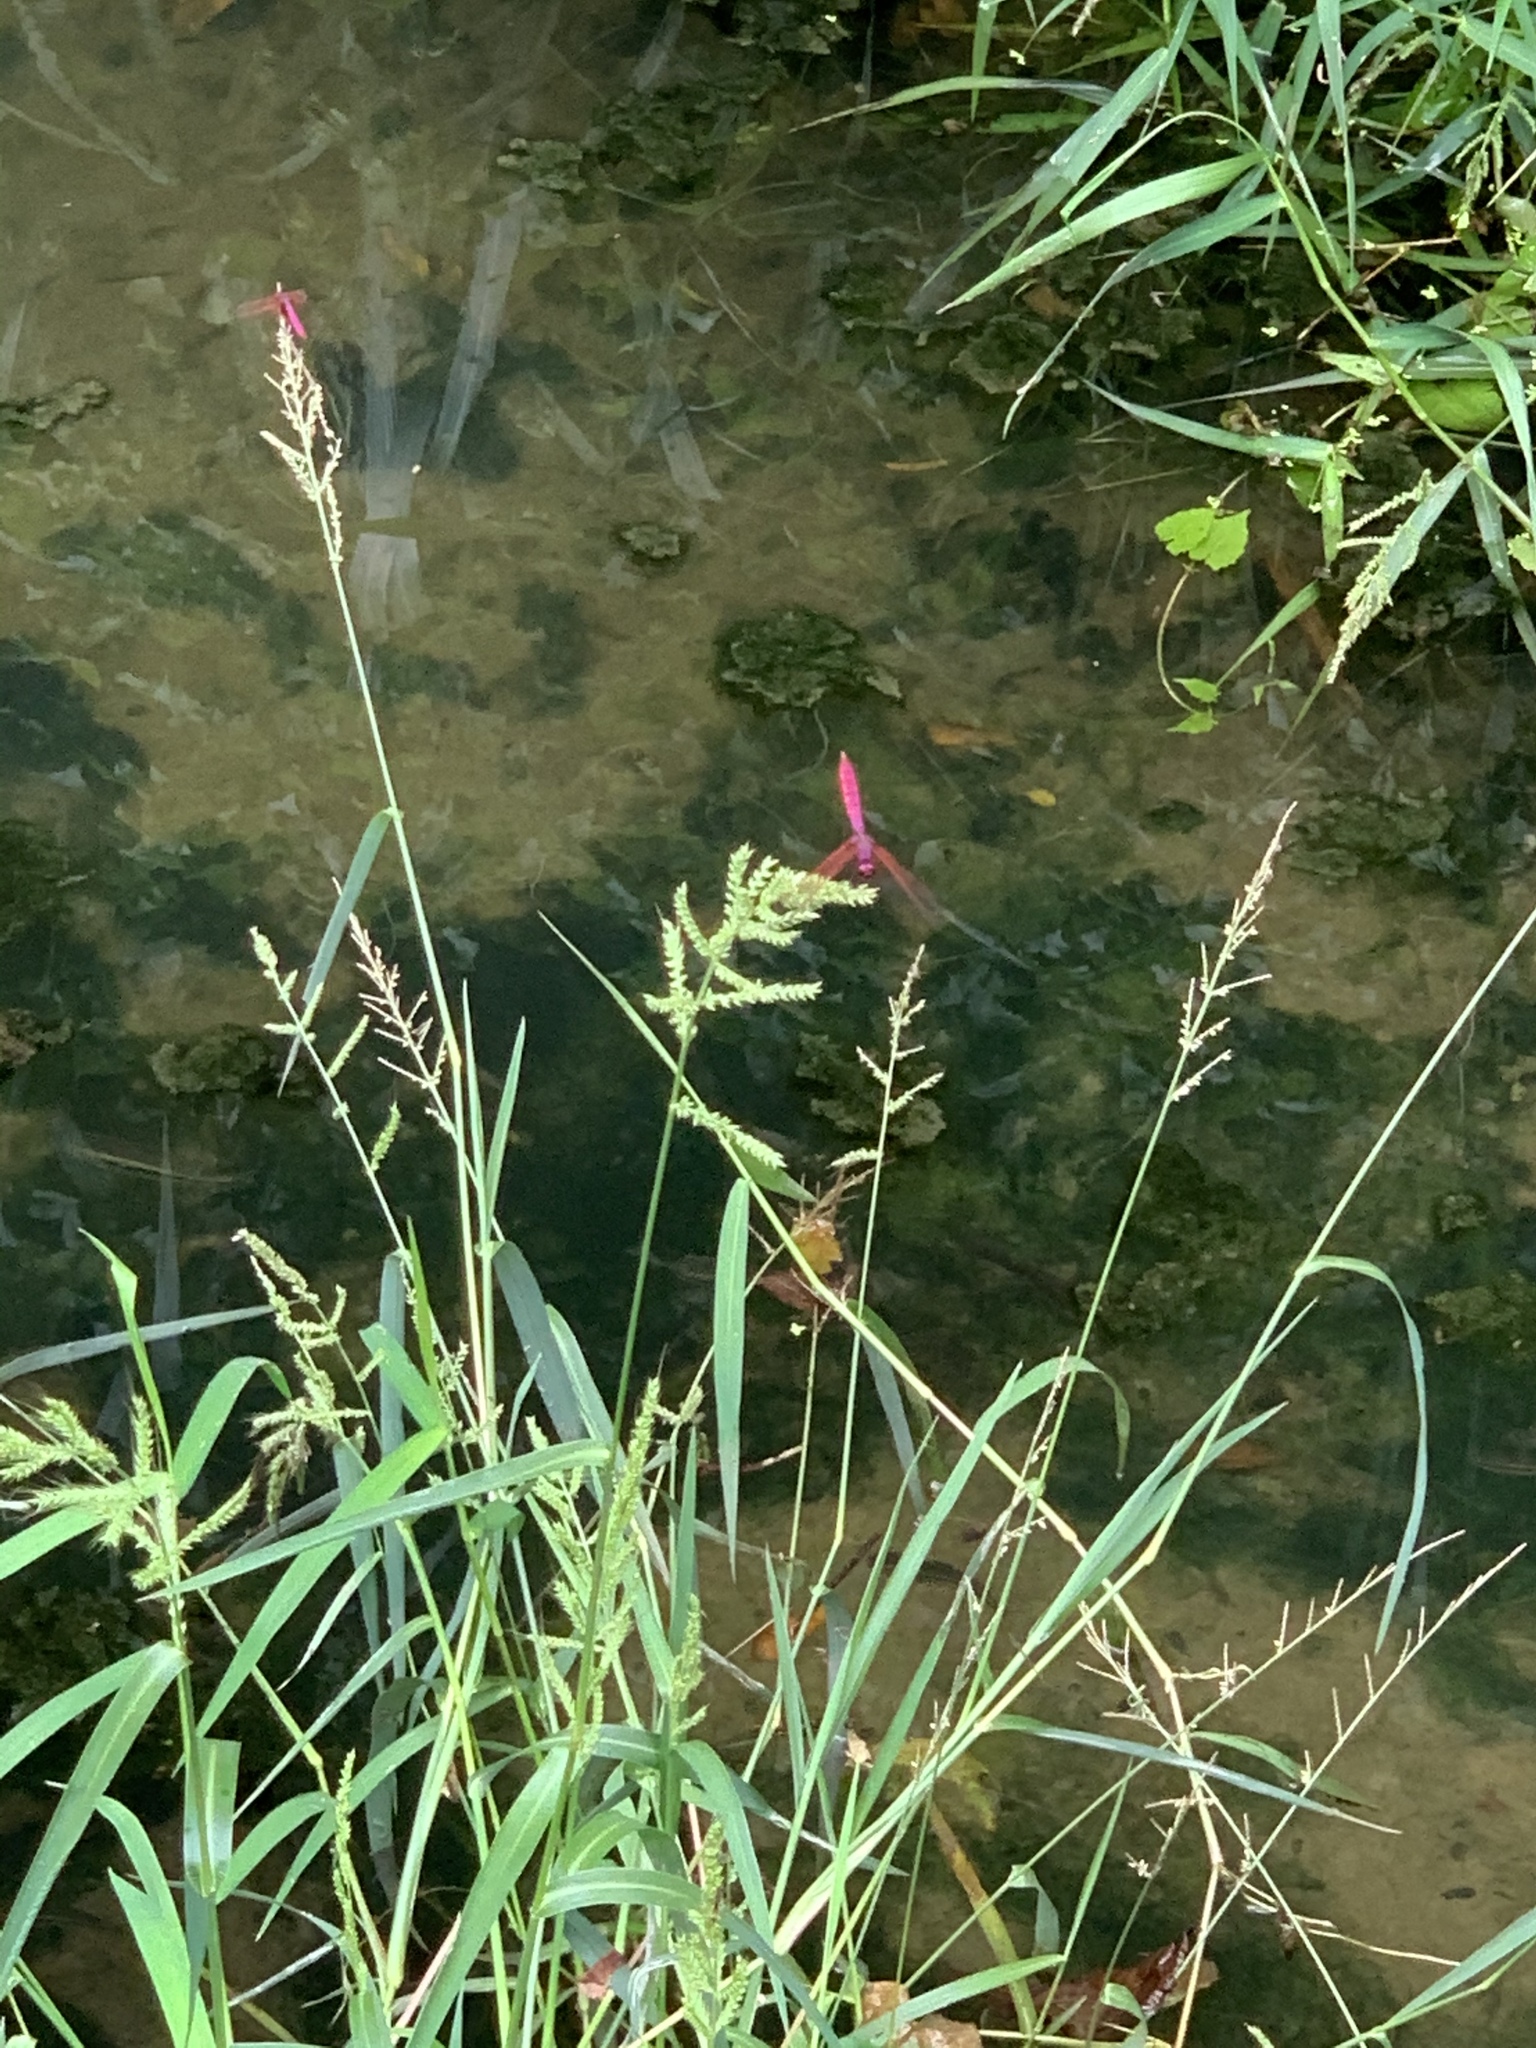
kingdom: Animalia
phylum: Arthropoda
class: Insecta
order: Odonata
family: Libellulidae
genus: Trithemis
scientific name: Trithemis aurora
